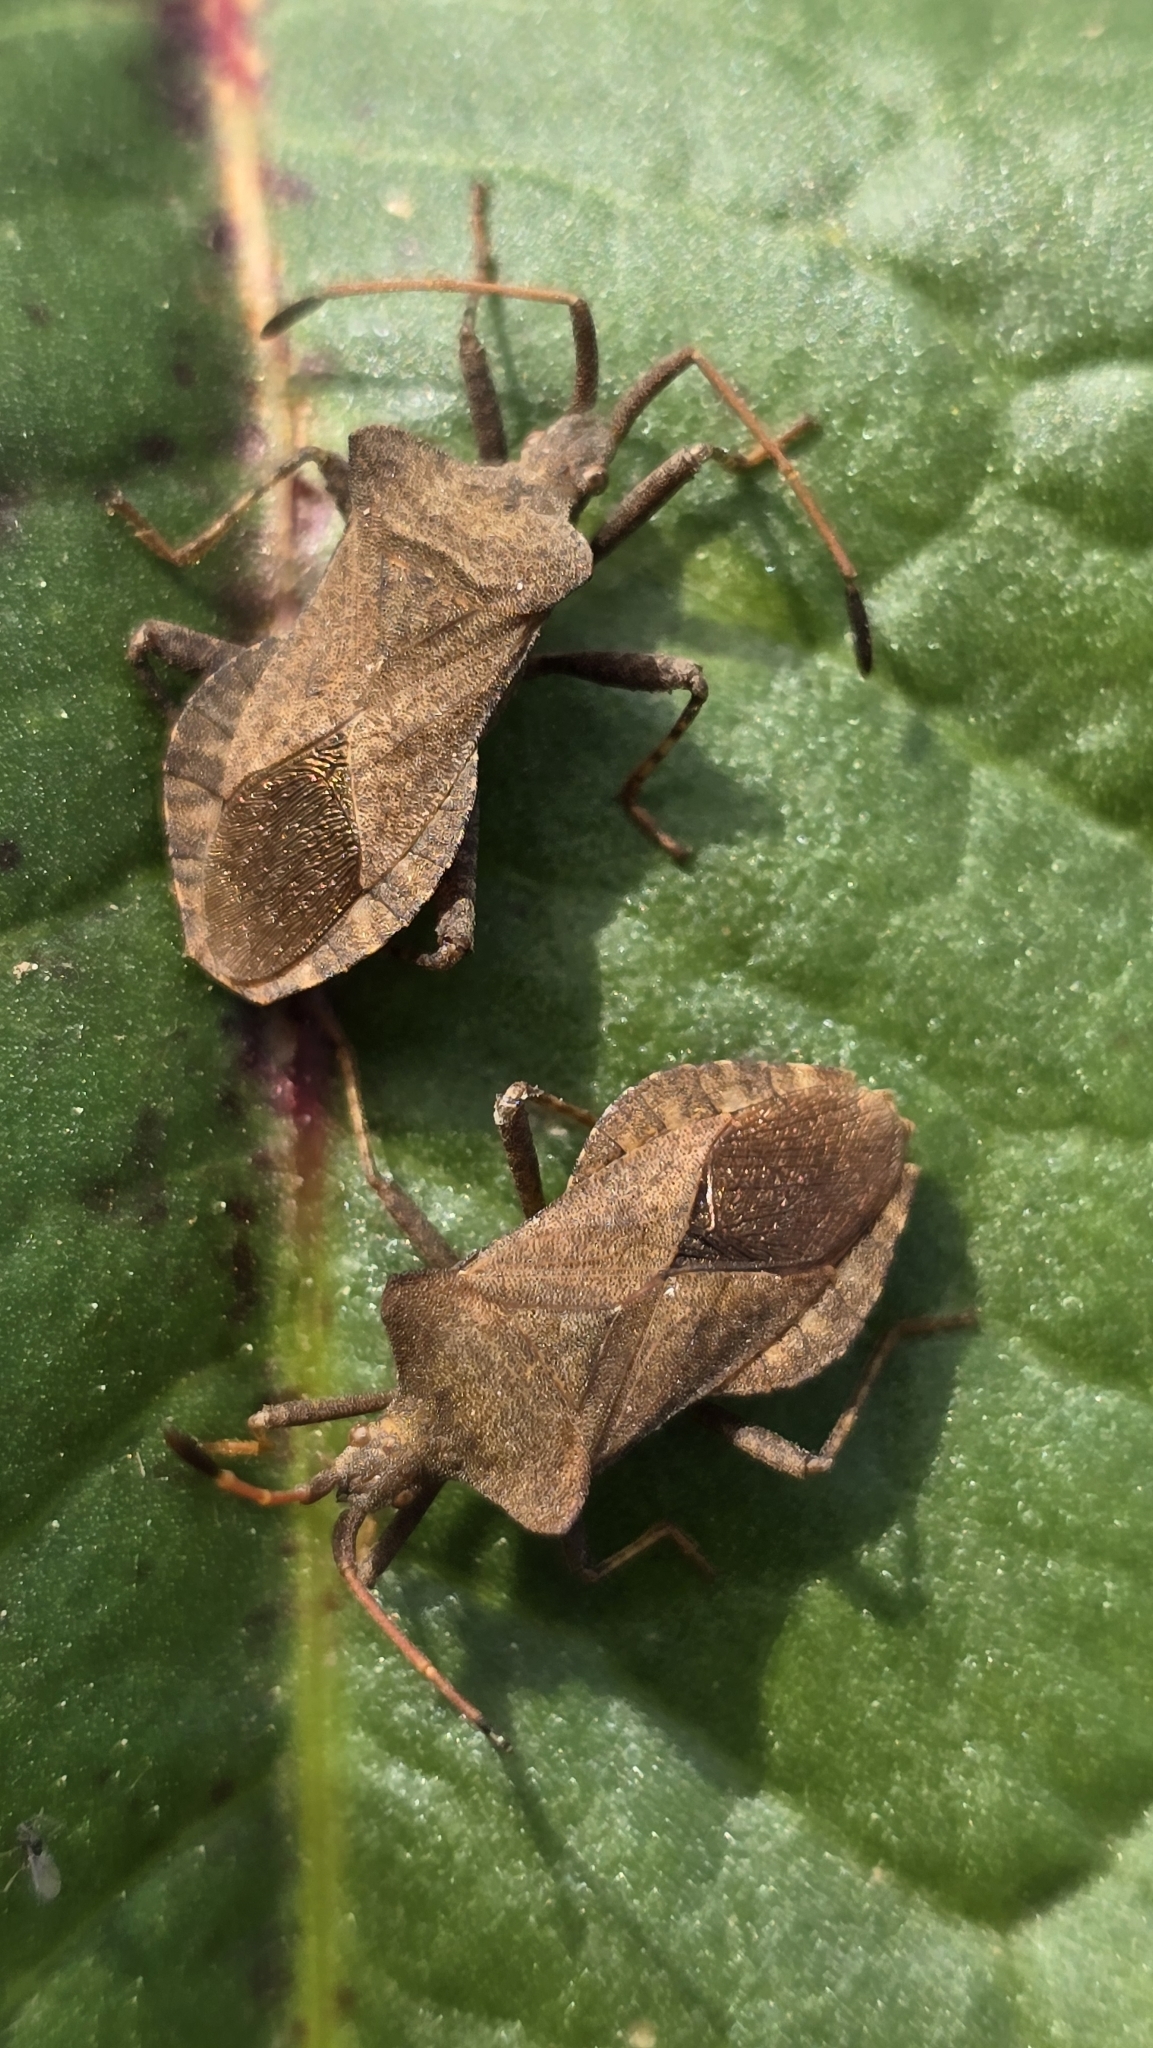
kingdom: Animalia
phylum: Arthropoda
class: Insecta
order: Hemiptera
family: Coreidae
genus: Coreus
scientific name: Coreus marginatus
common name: Dock bug
